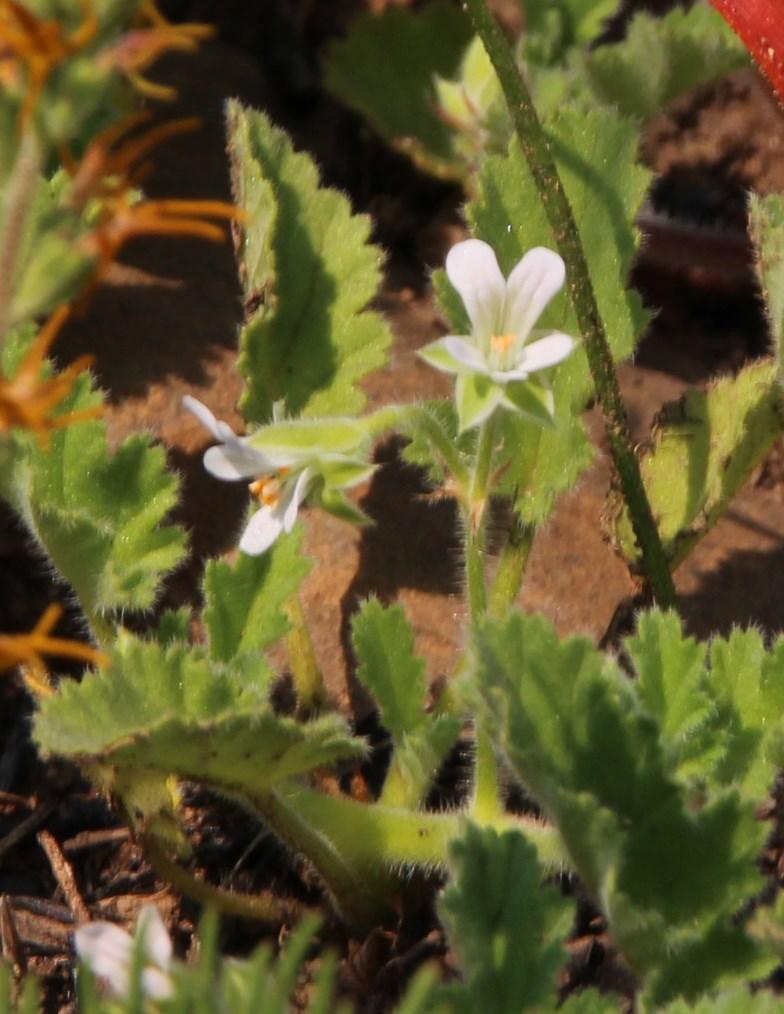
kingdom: Plantae
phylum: Tracheophyta
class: Magnoliopsida
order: Geraniales
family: Geraniaceae
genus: Pelargonium
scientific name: Pelargonium althaeoides
